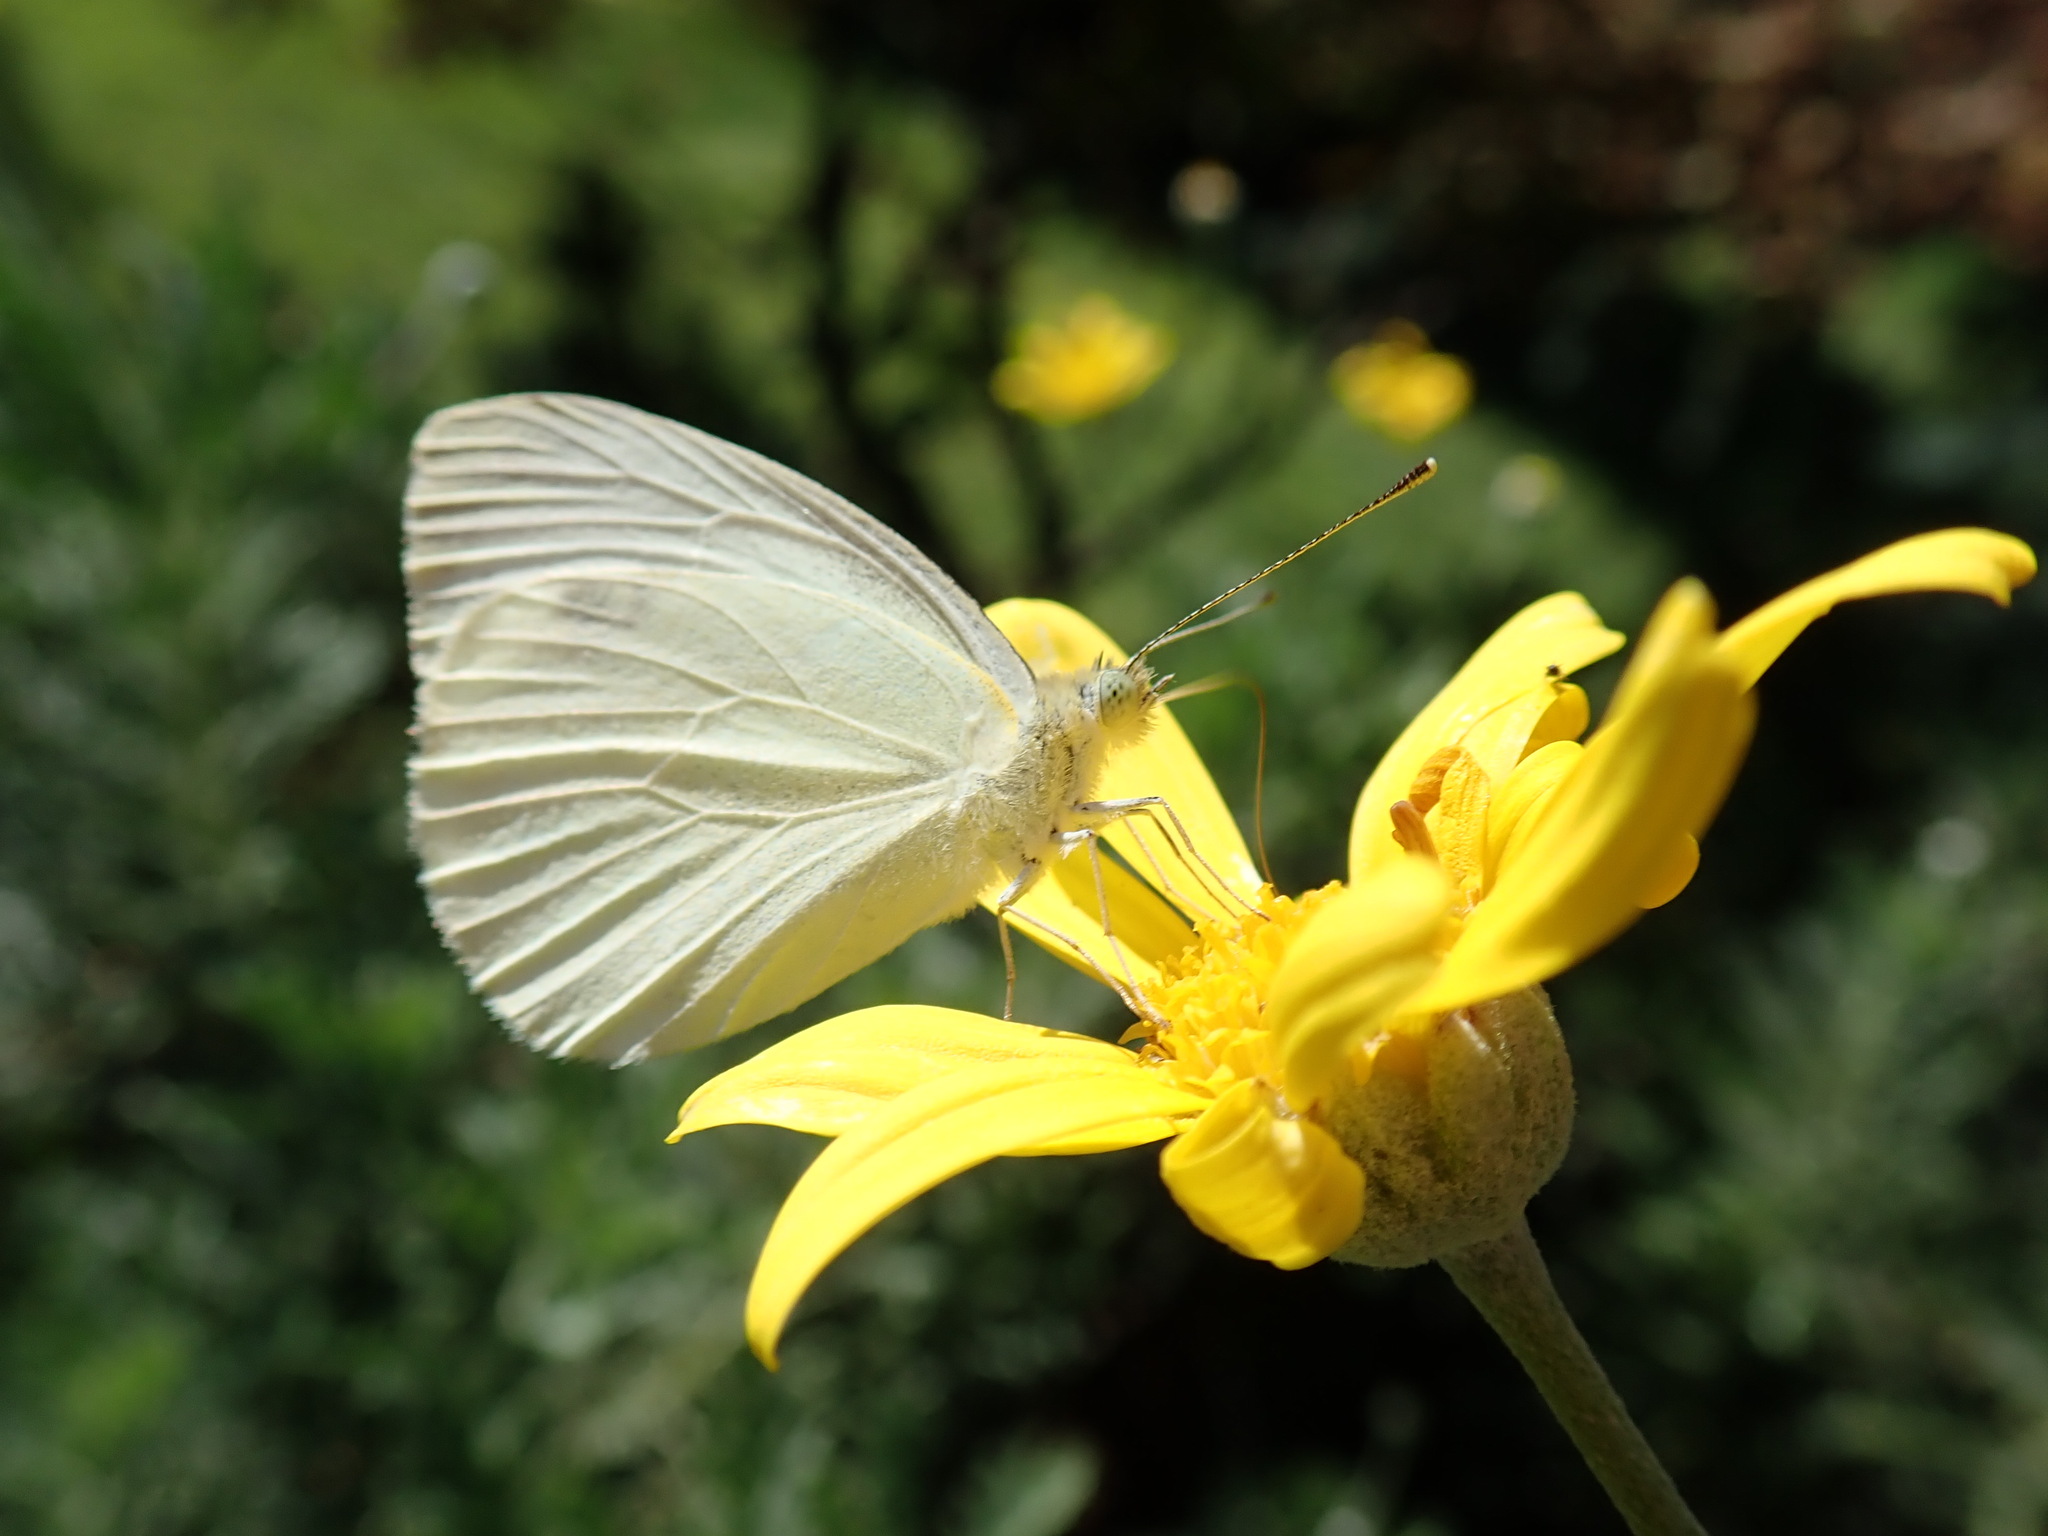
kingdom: Animalia
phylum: Arthropoda
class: Insecta
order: Lepidoptera
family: Pieridae
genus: Pieris
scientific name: Pieris
